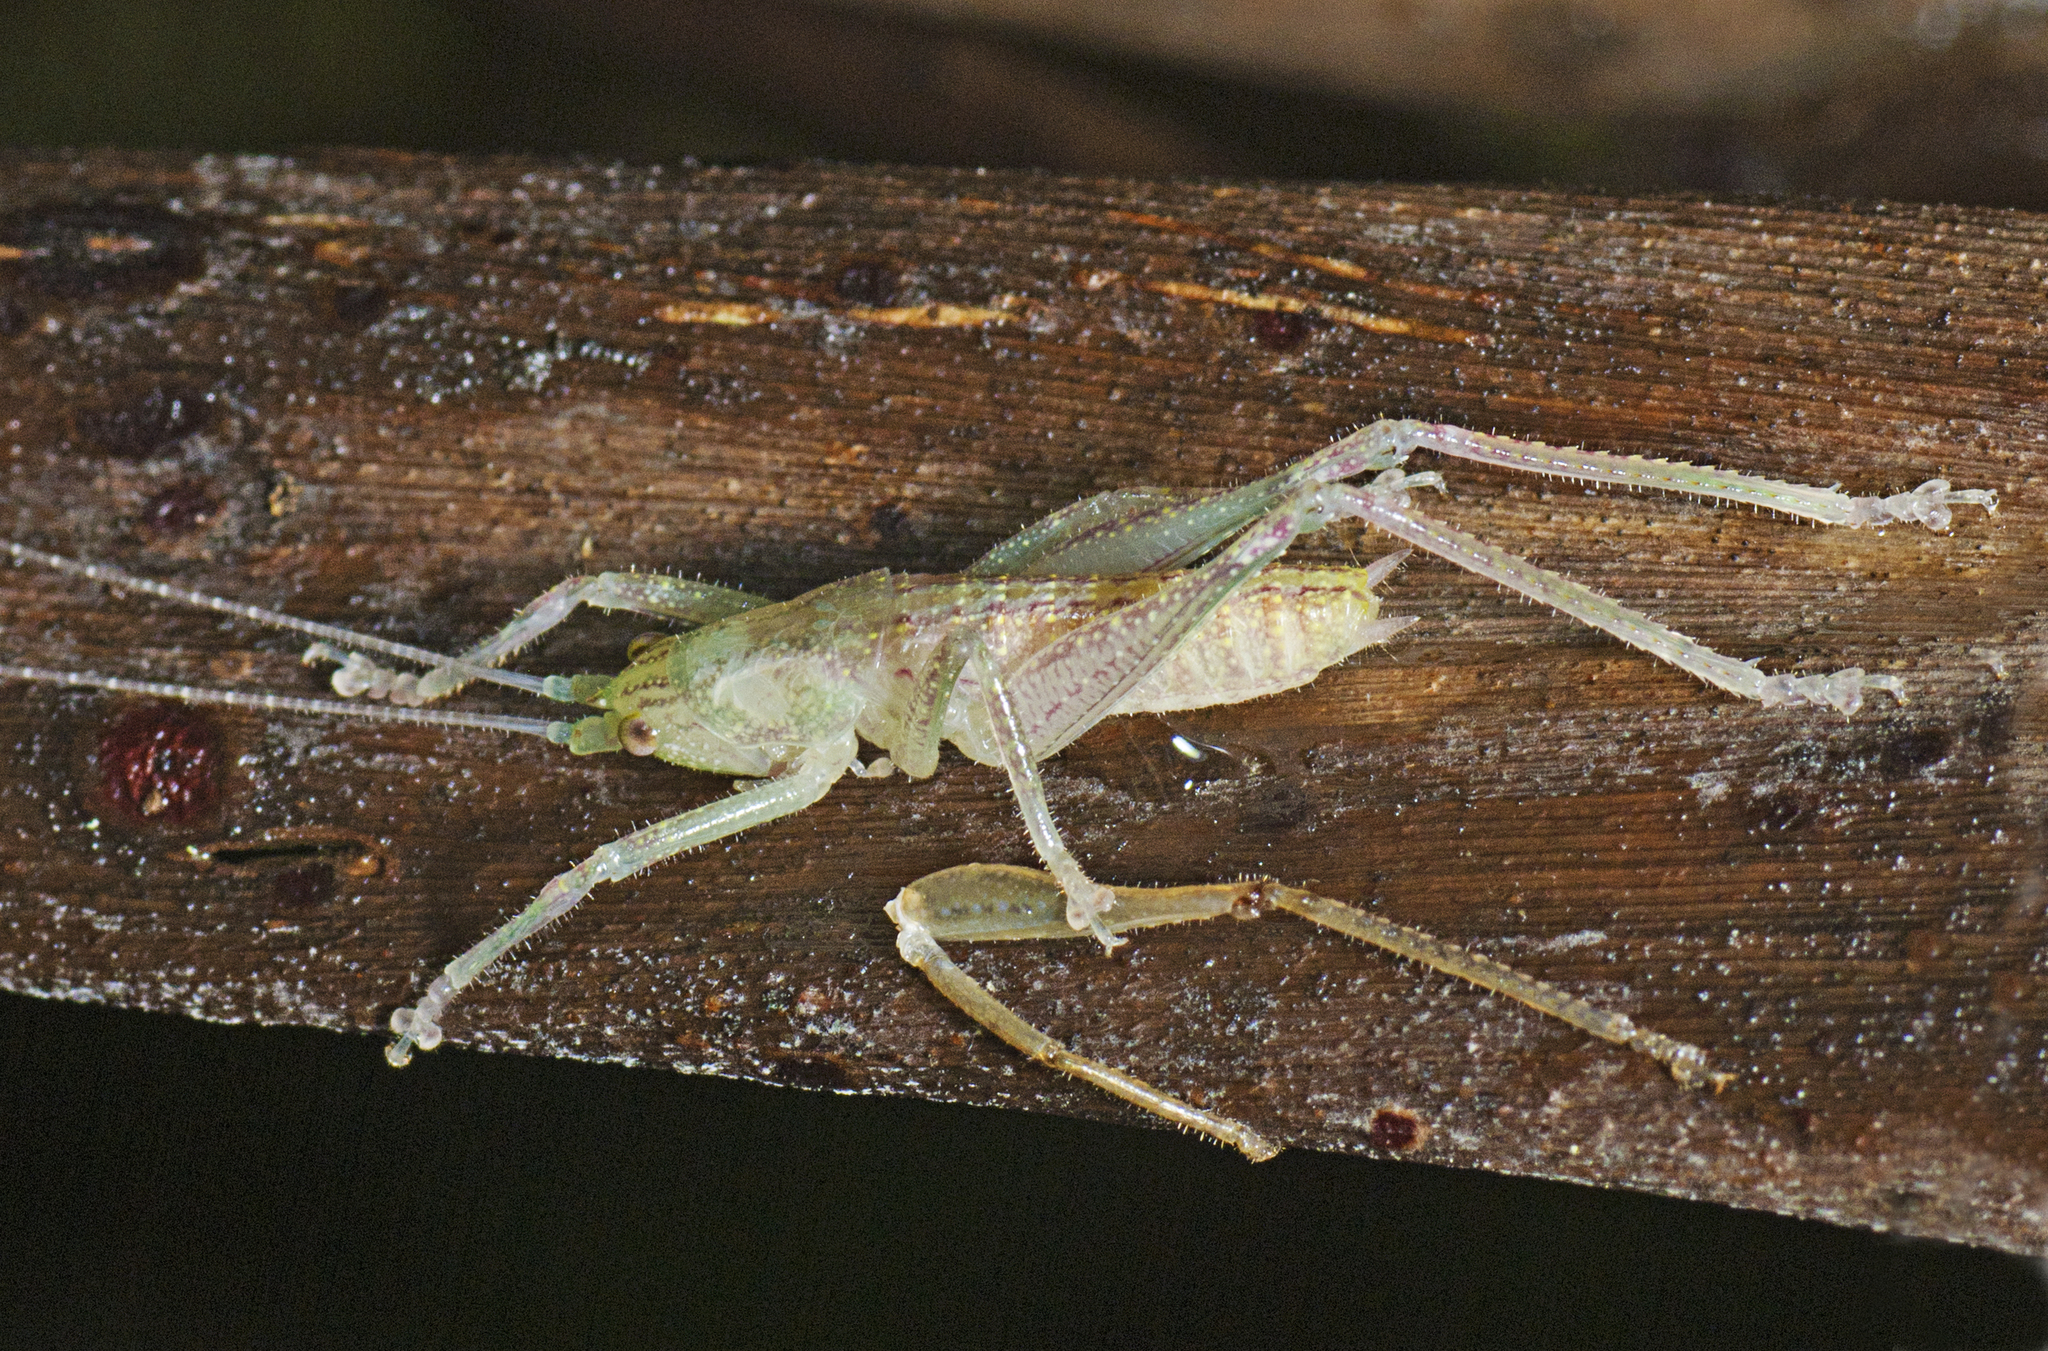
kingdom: Animalia
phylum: Arthropoda
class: Insecta
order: Orthoptera
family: Tettigoniidae
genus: Austrosalomona
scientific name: Austrosalomona falcata
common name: Olive-green coastal katydid
